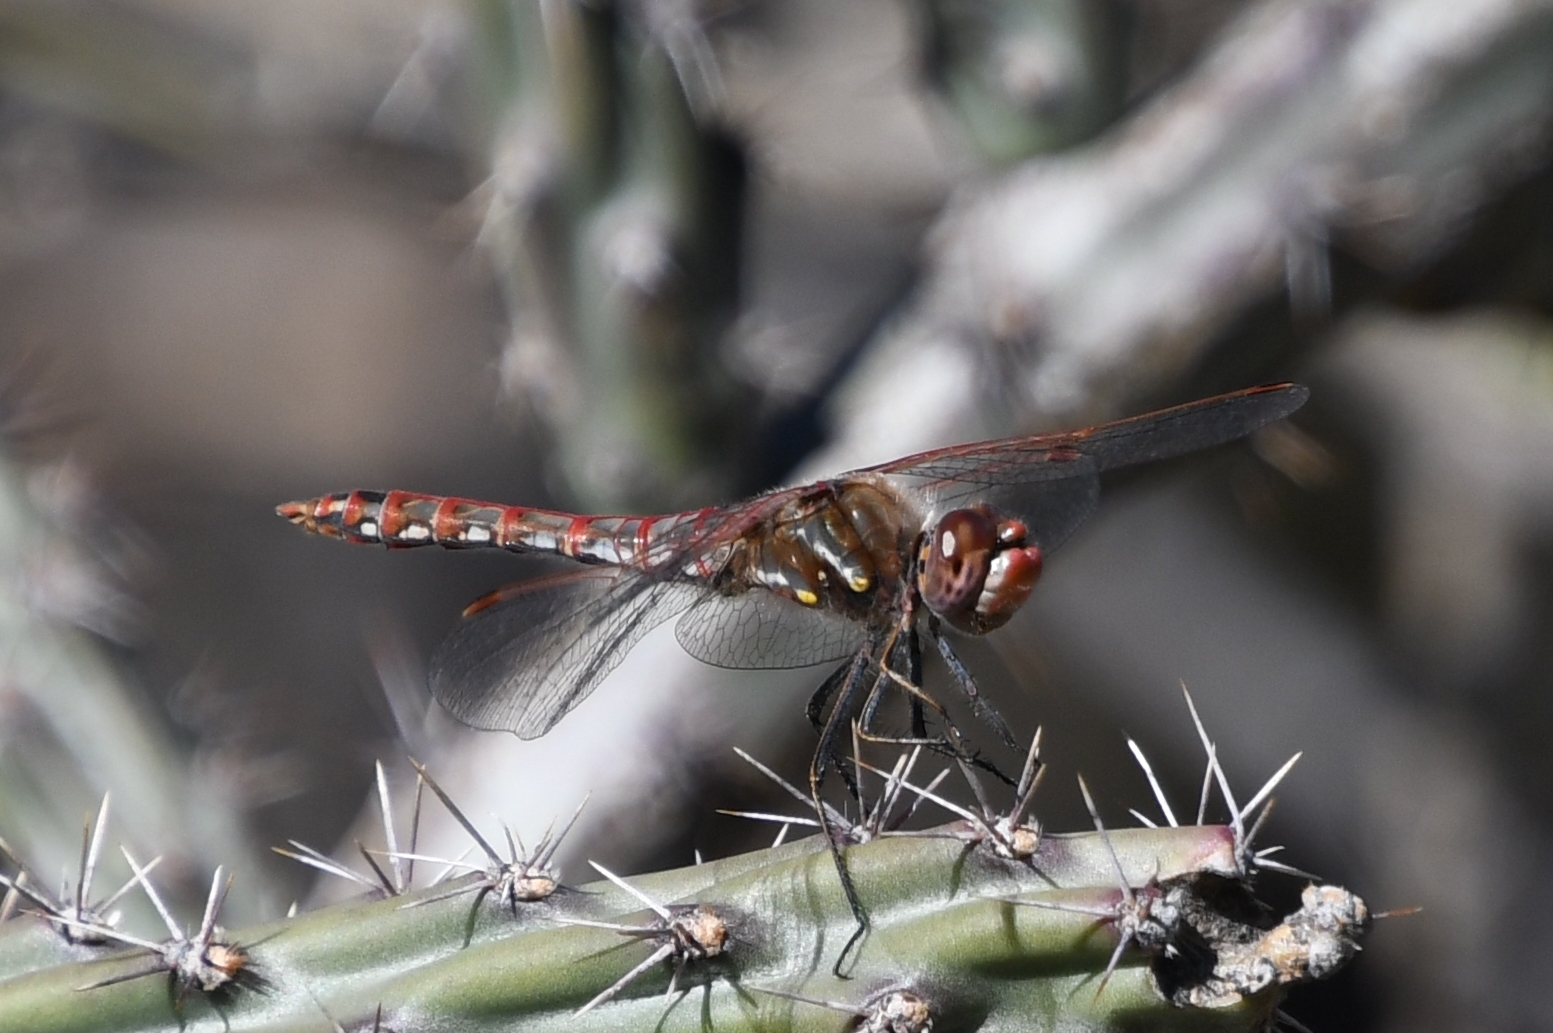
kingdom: Animalia
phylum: Arthropoda
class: Insecta
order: Odonata
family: Libellulidae
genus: Sympetrum
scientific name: Sympetrum corruptum
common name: Variegated meadowhawk
